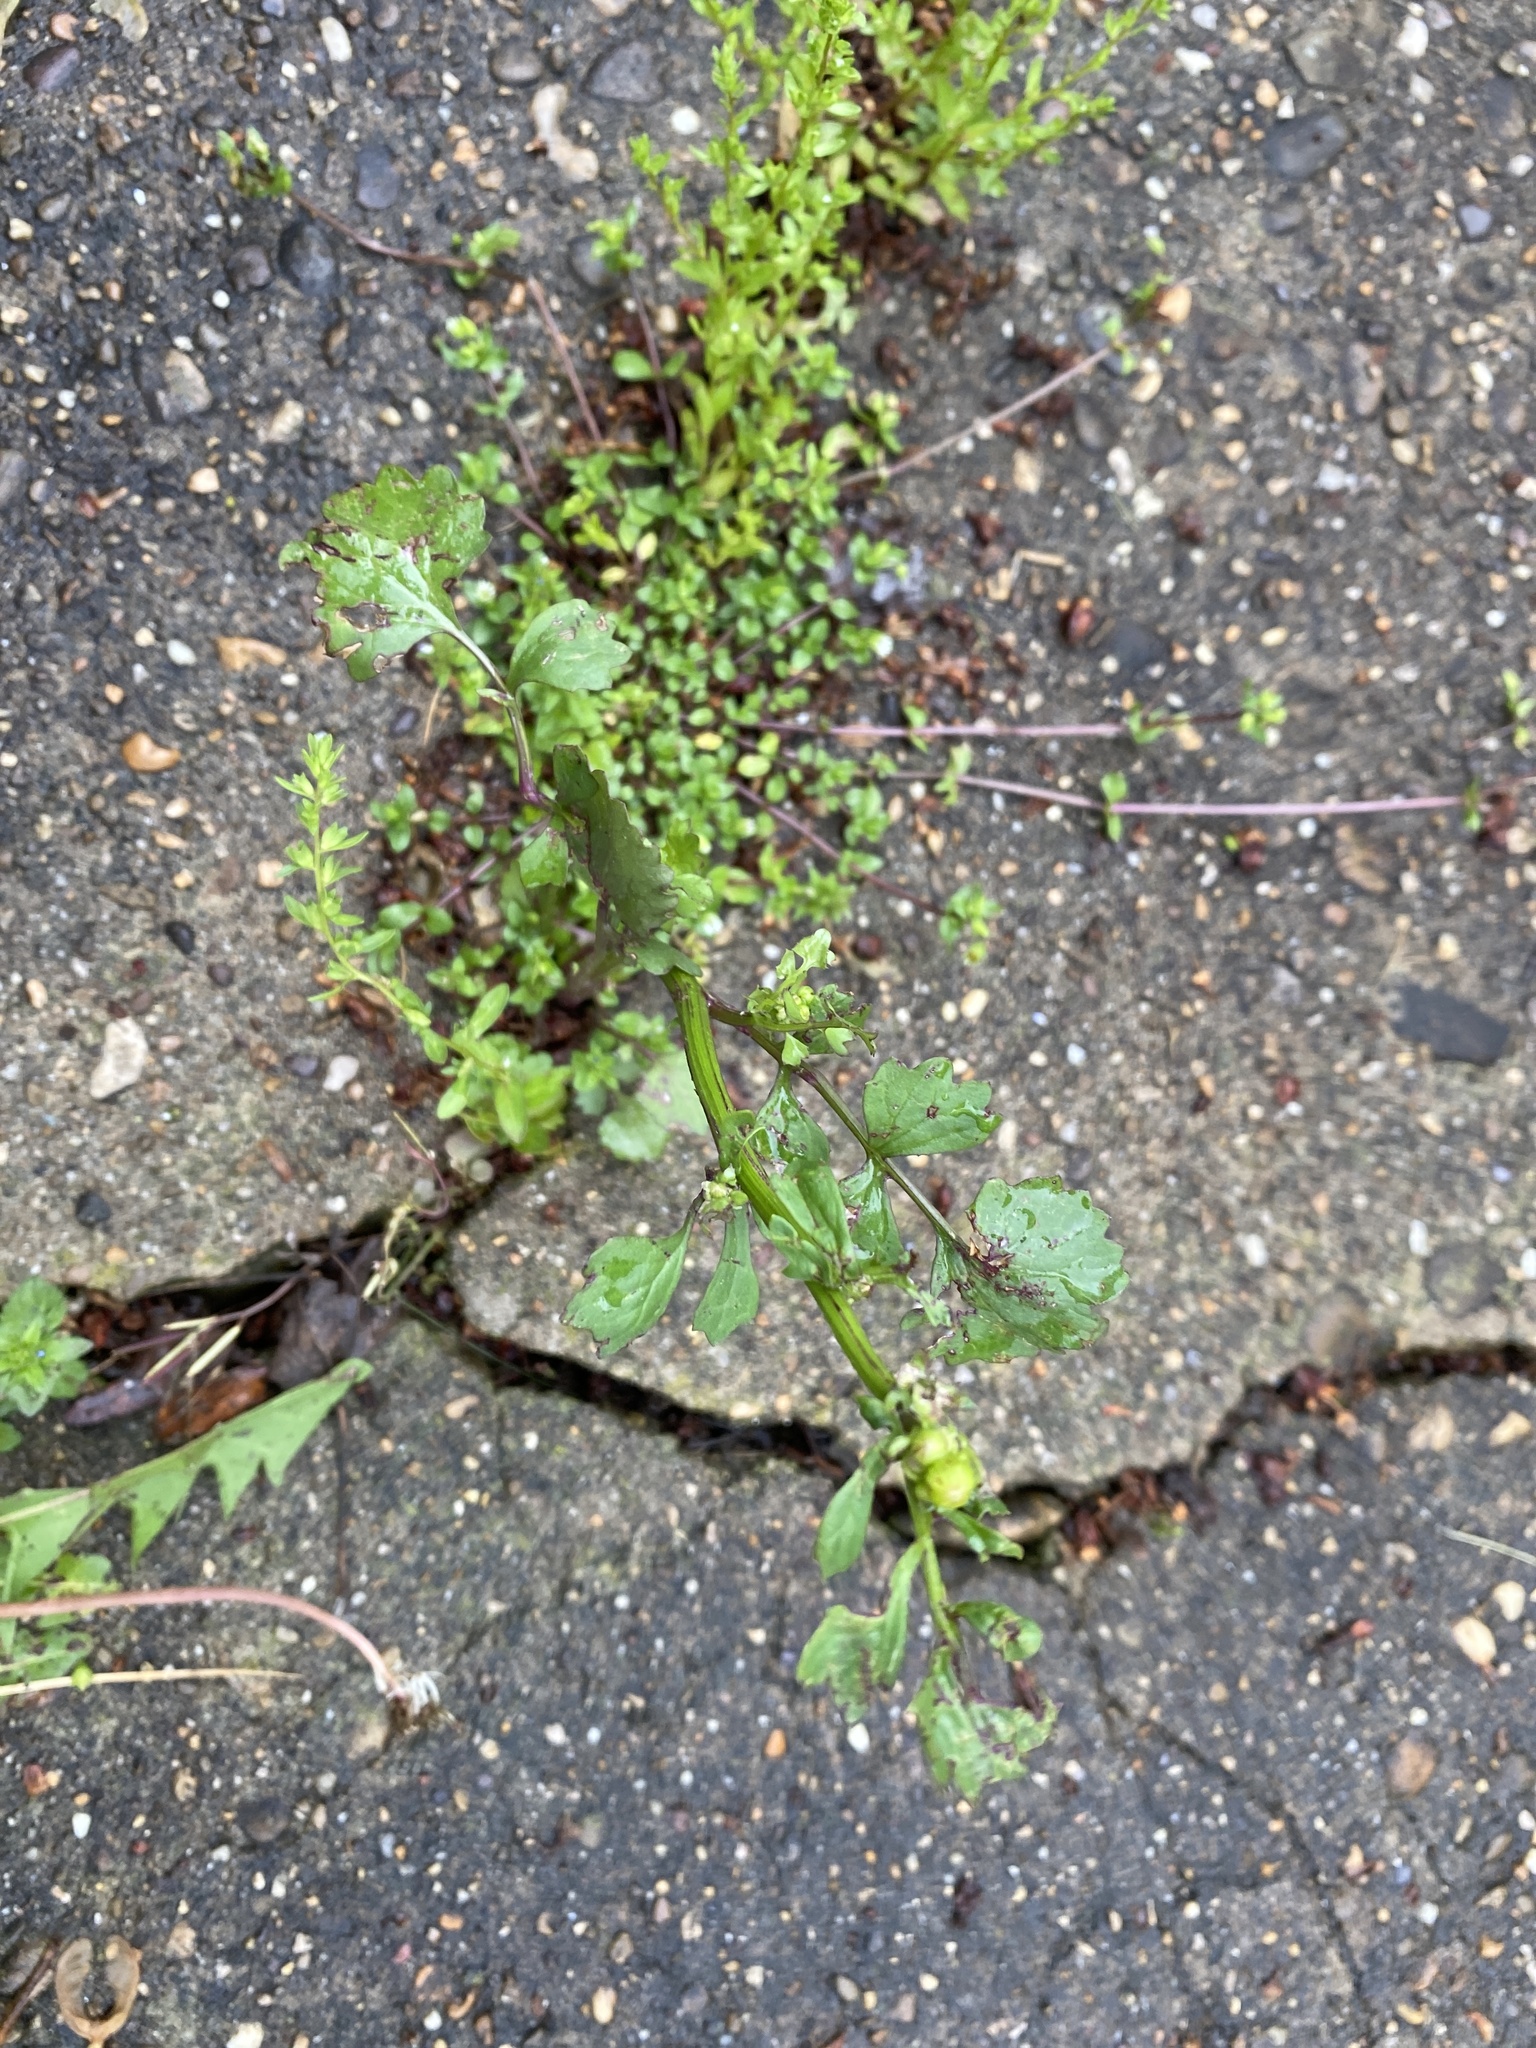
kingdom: Plantae
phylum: Tracheophyta
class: Magnoliopsida
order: Asterales
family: Asteraceae
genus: Packera
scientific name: Packera glabella
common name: Butterweed
